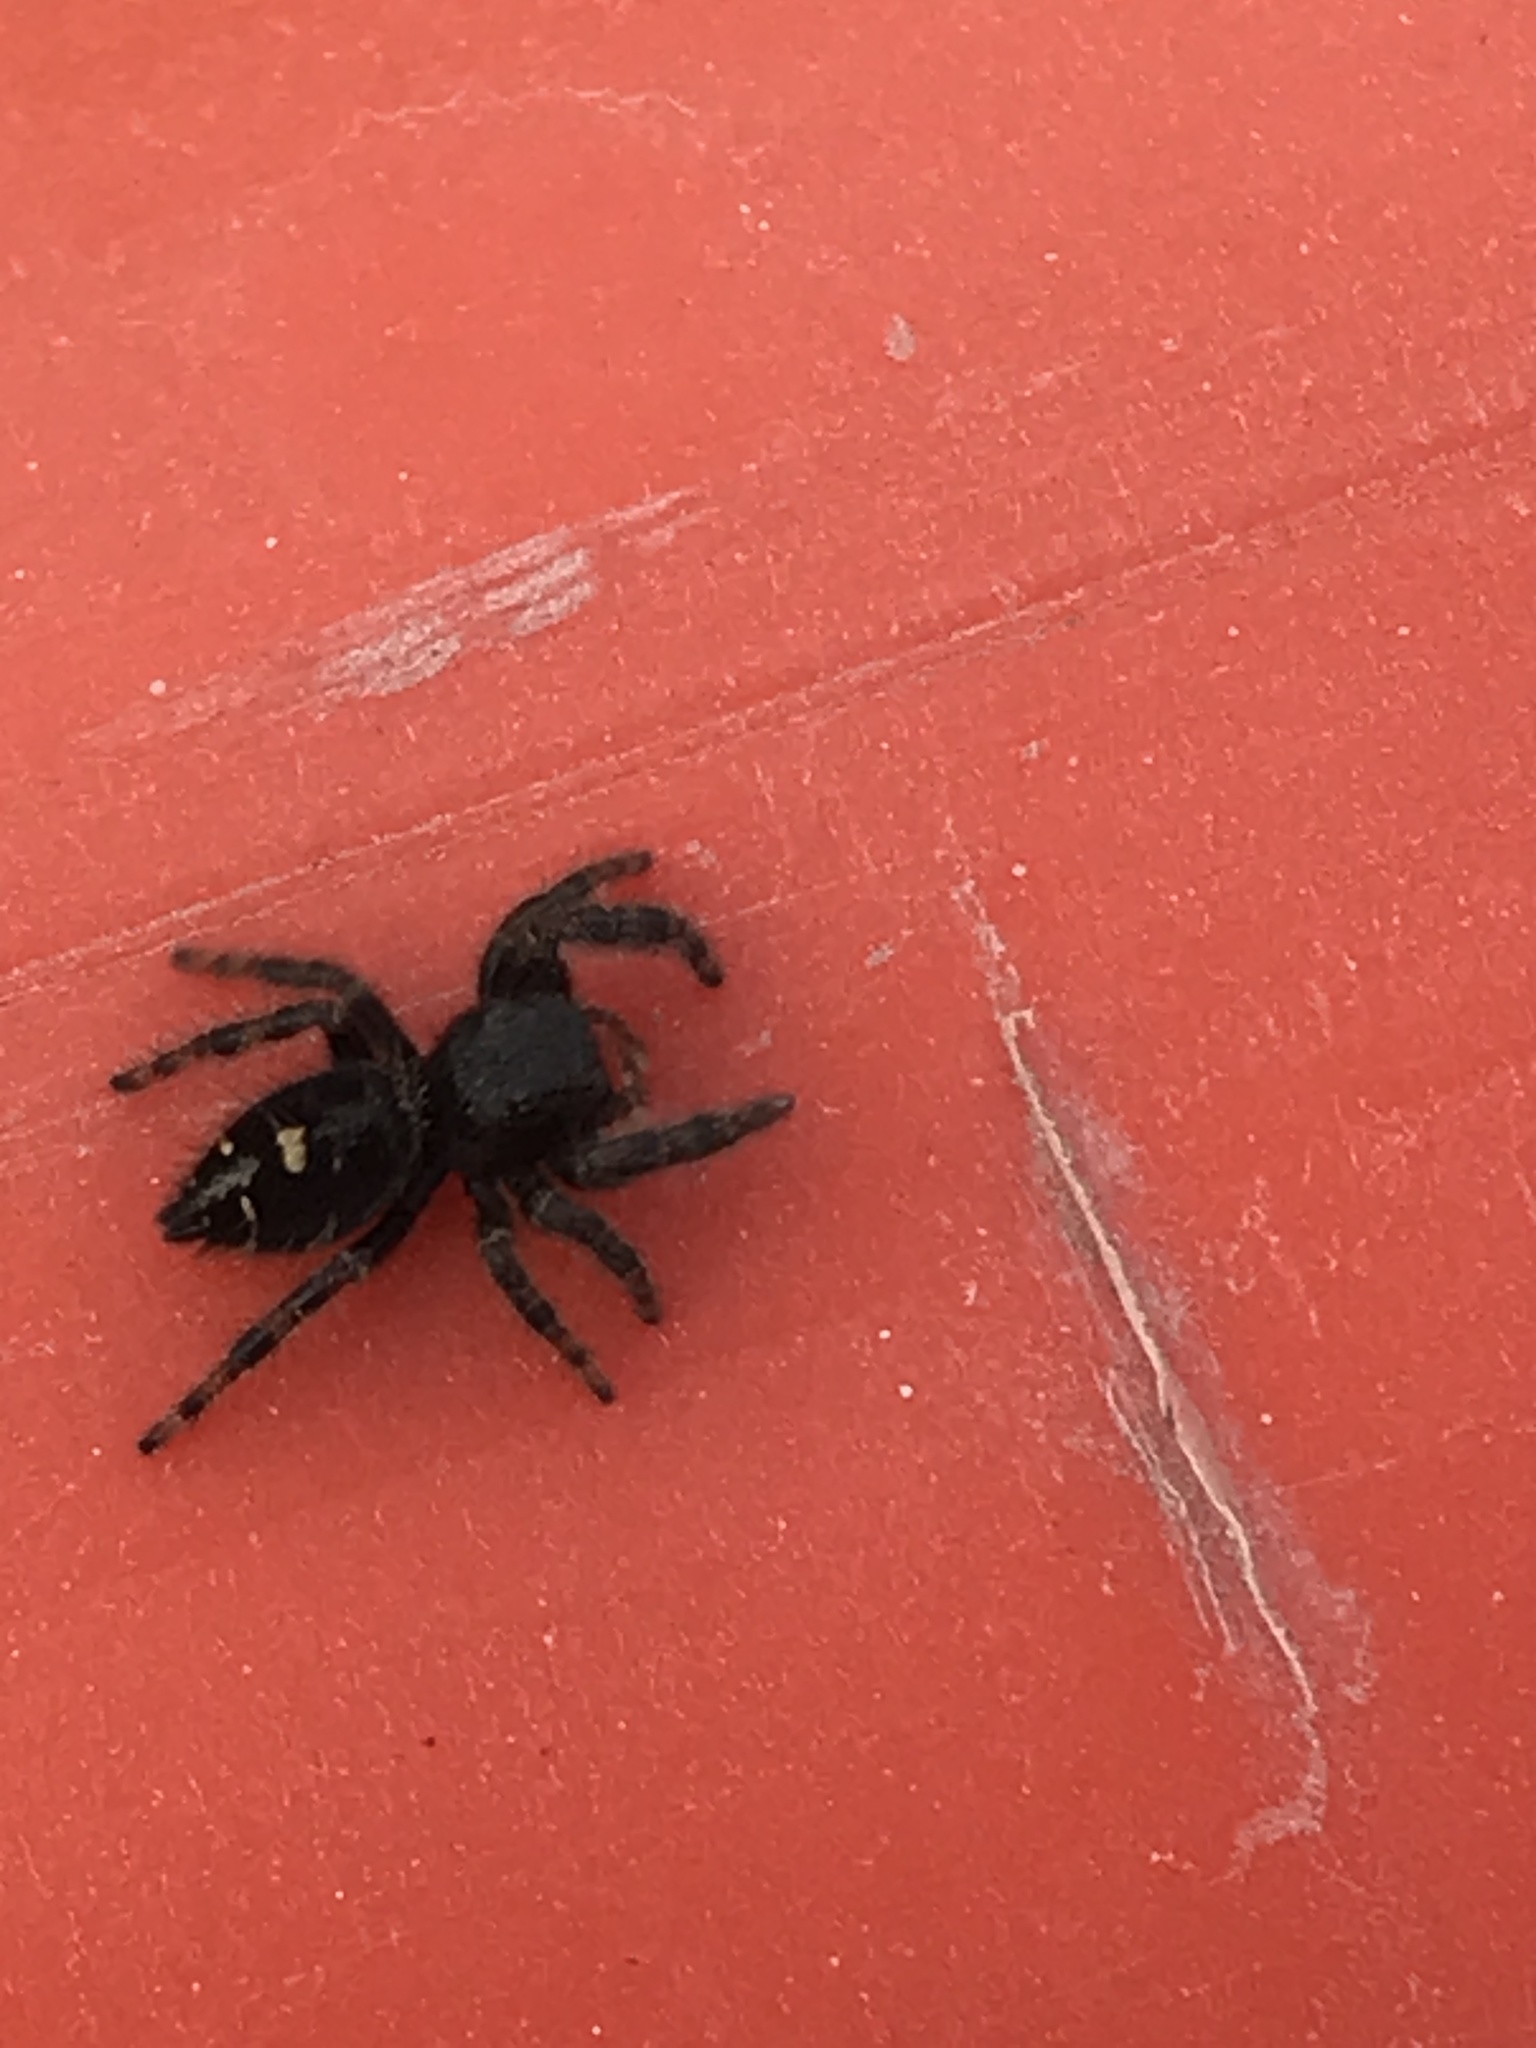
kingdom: Animalia
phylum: Arthropoda
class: Arachnida
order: Araneae
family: Salticidae
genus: Phidippus
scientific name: Phidippus audax
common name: Bold jumper
